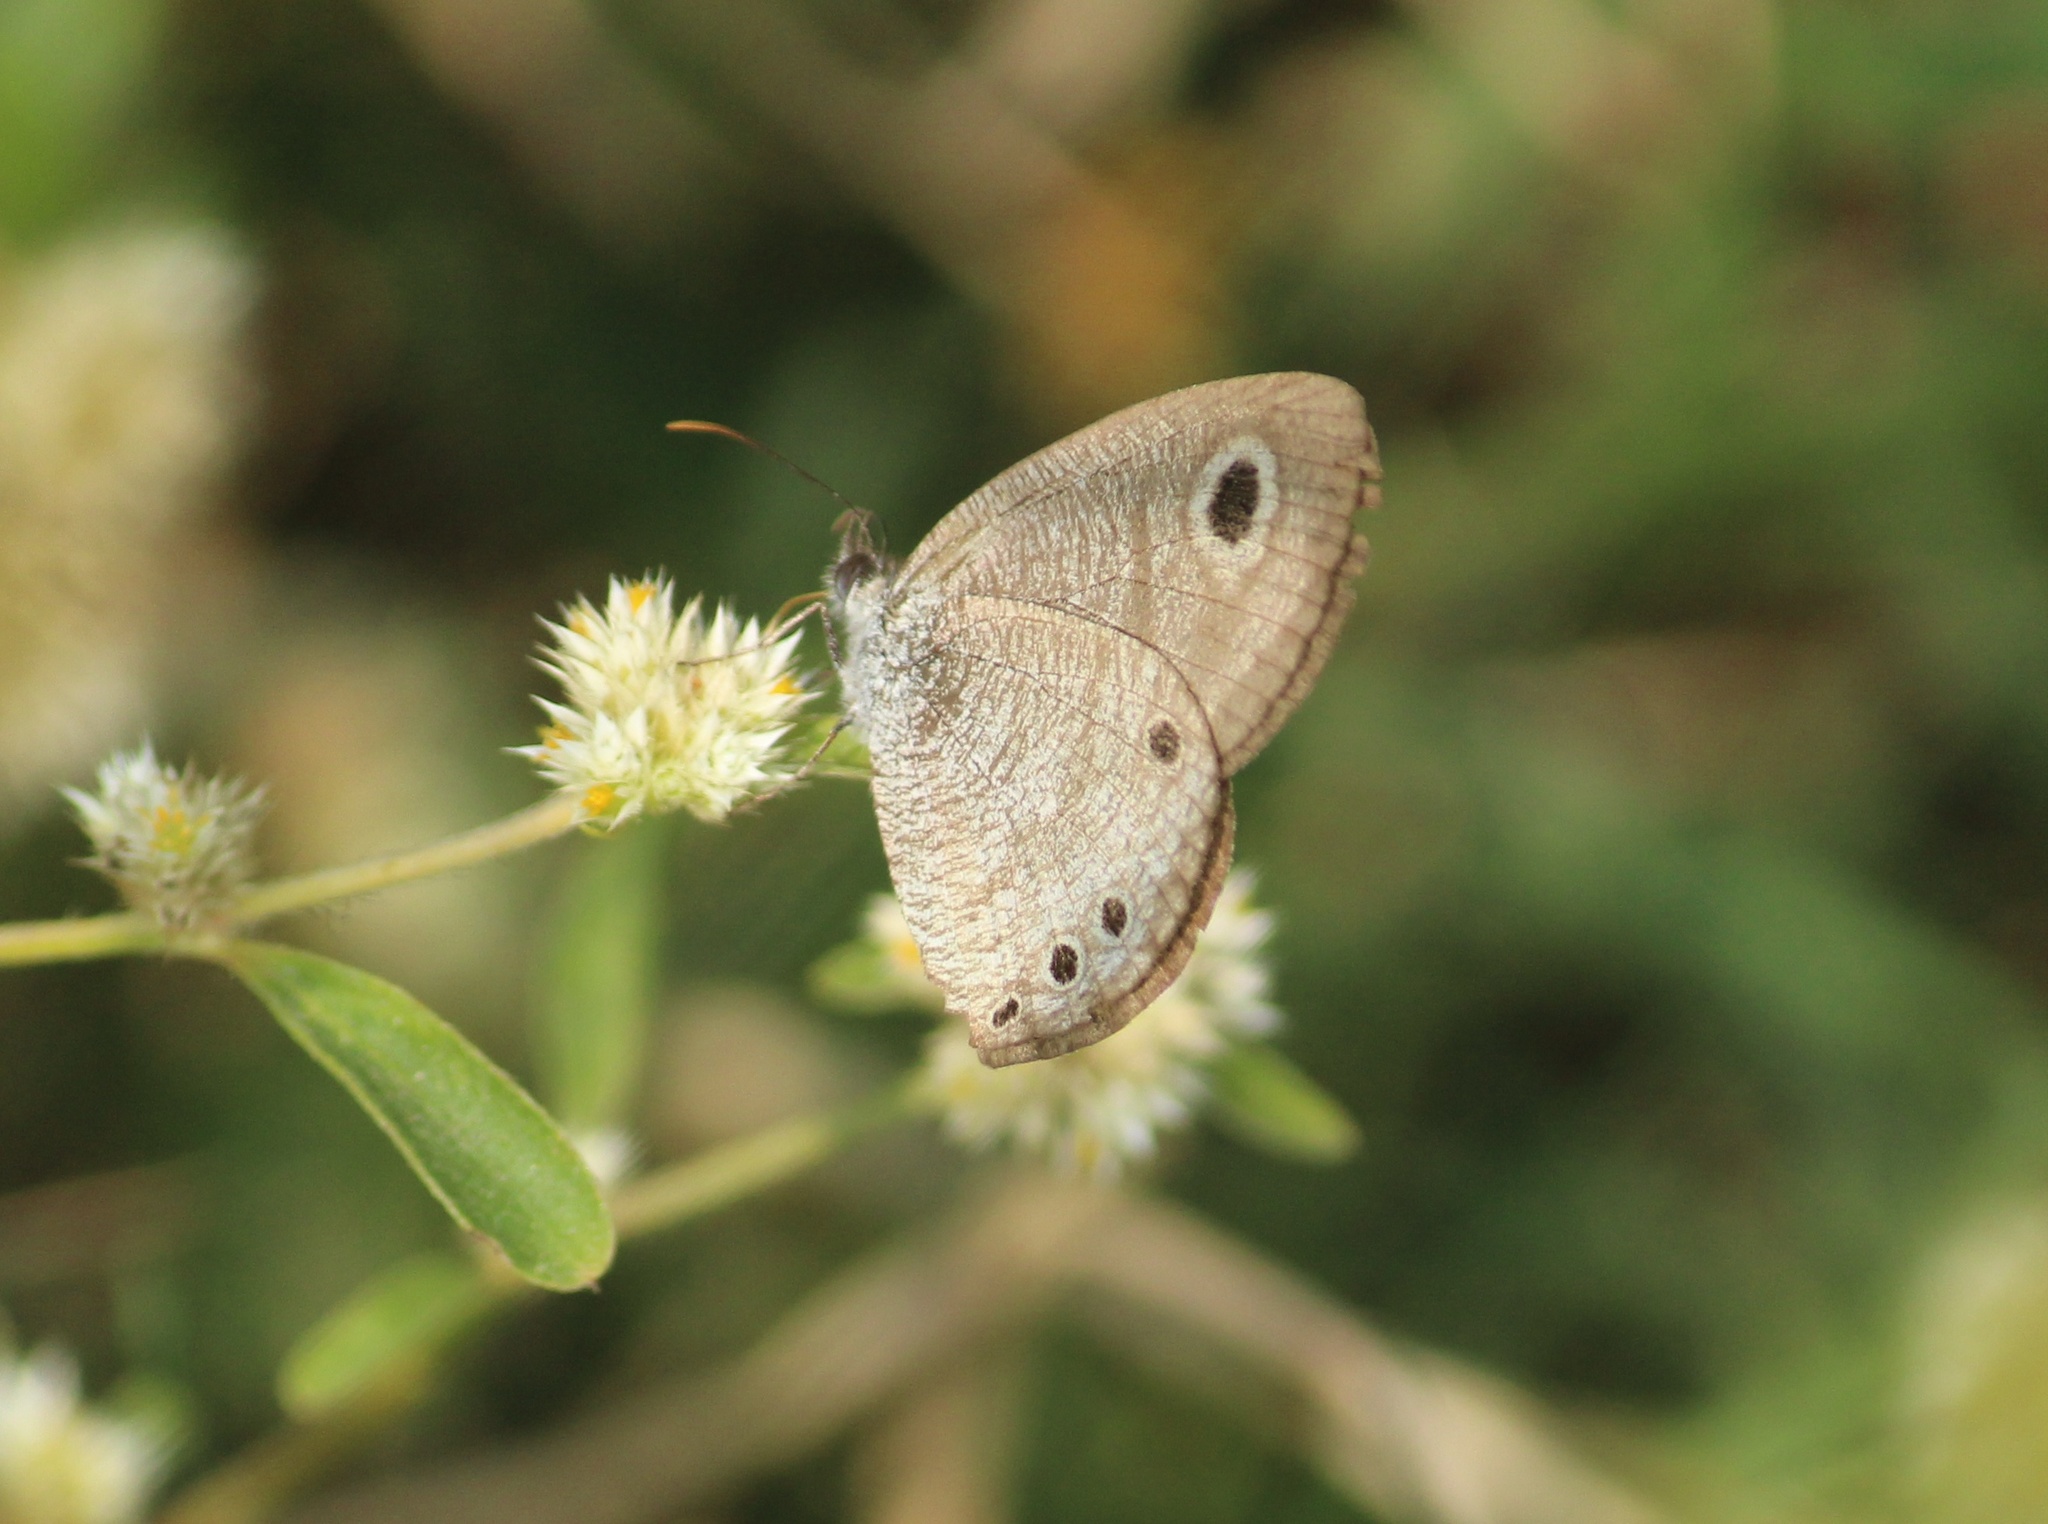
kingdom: Animalia
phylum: Arthropoda
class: Insecta
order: Lepidoptera
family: Nymphalidae
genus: Ypthima
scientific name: Ypthima huebneri
